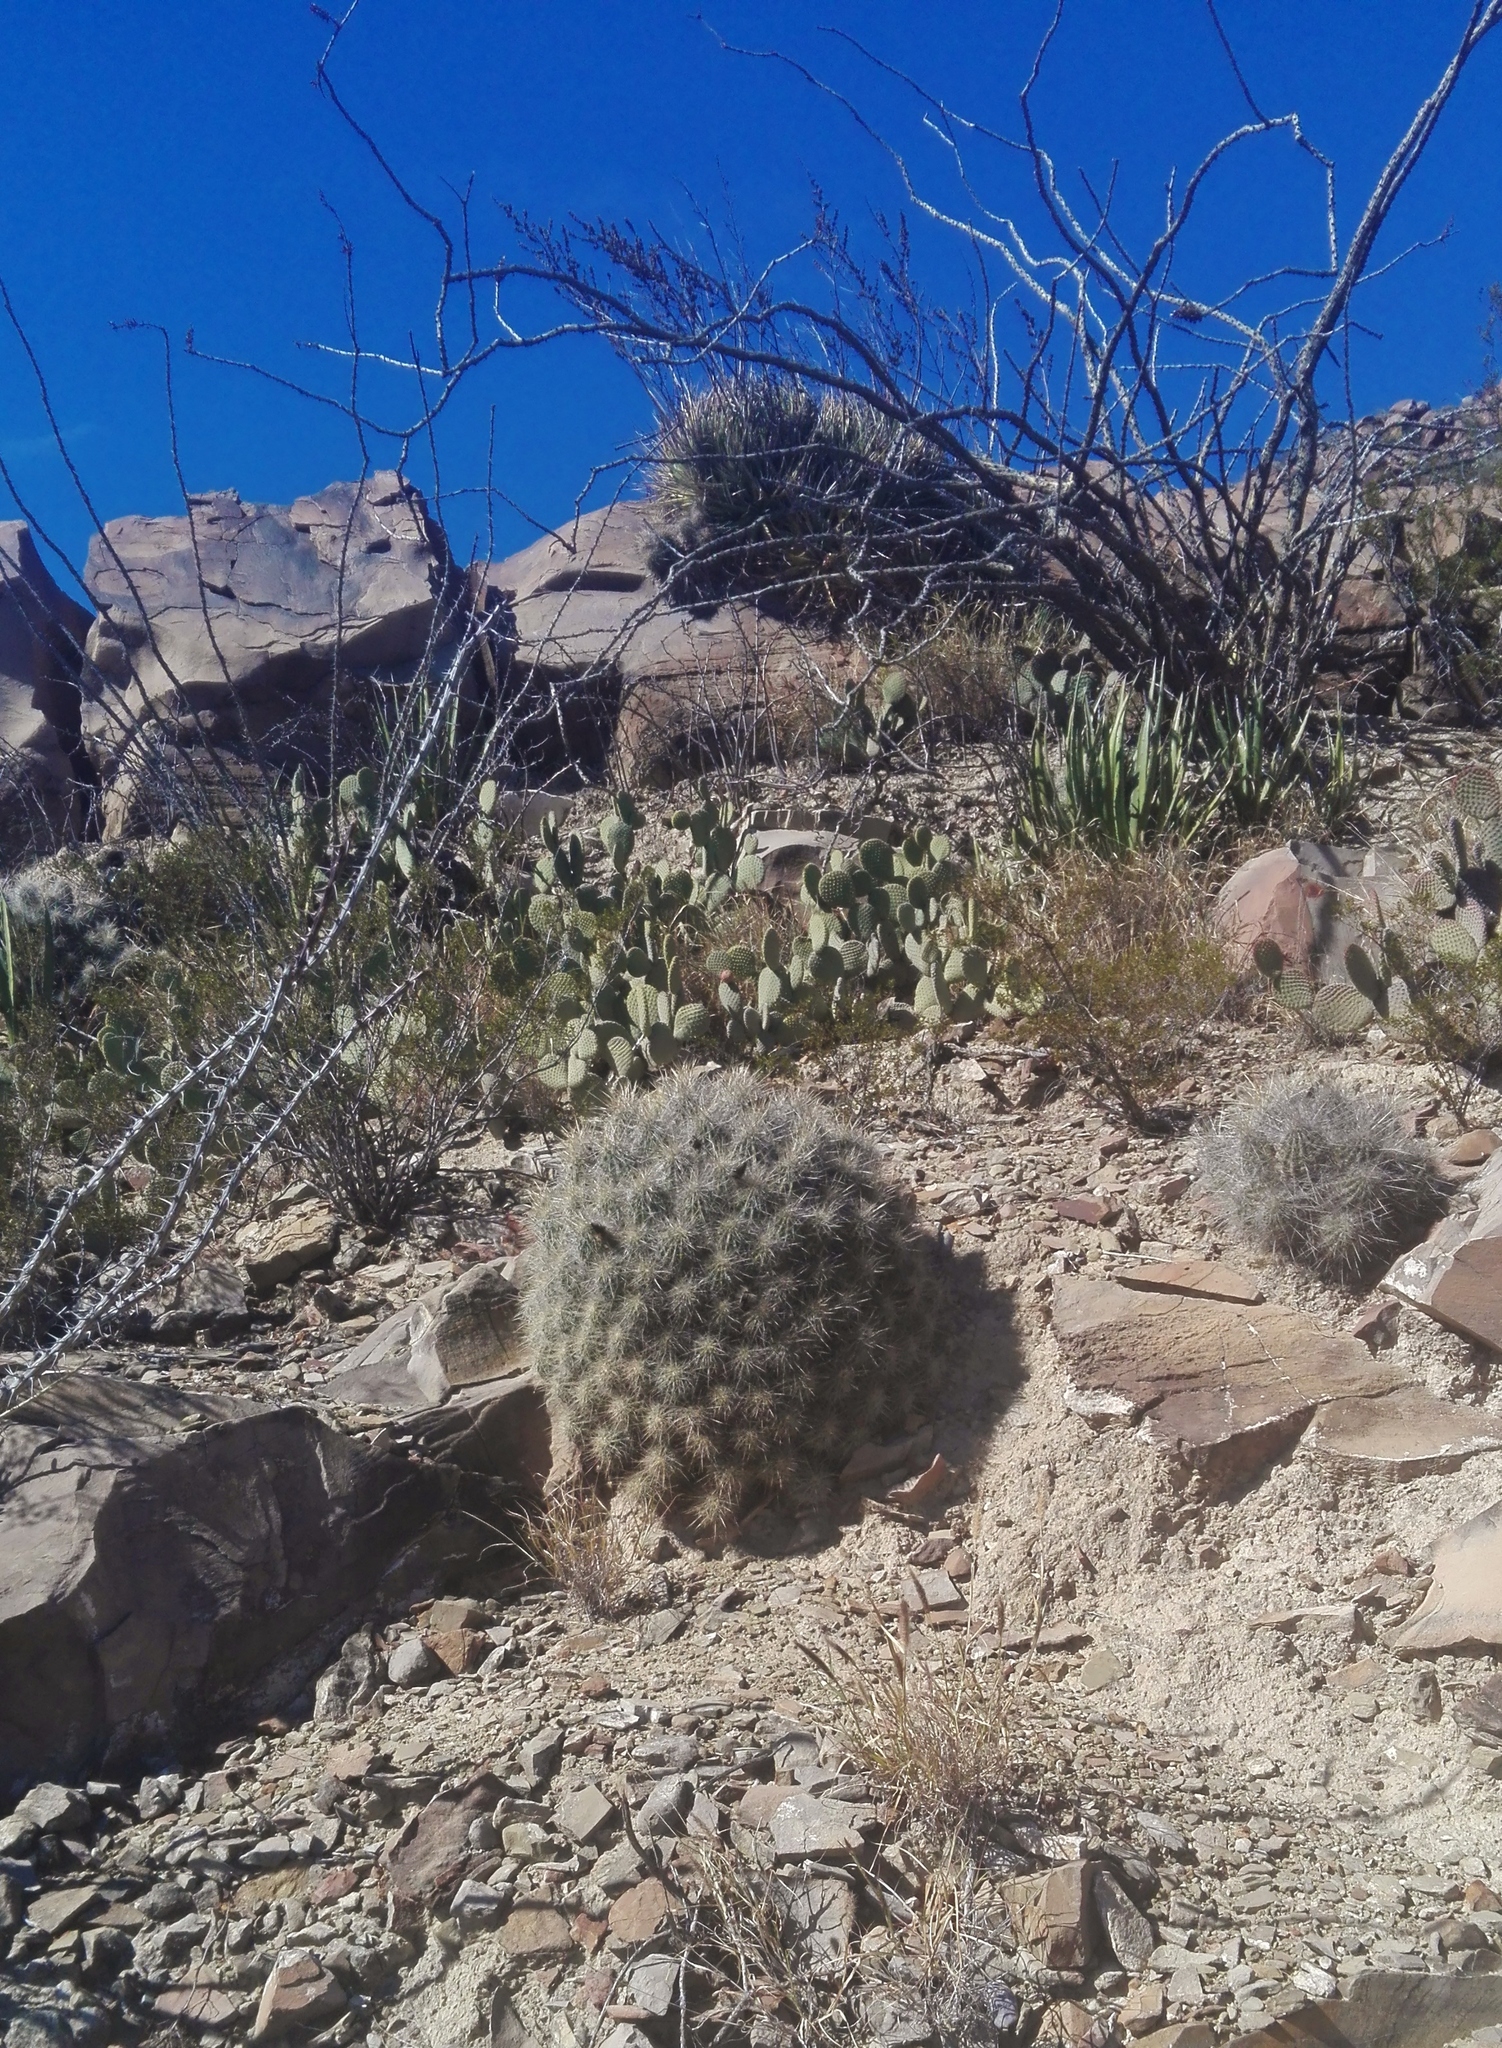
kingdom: Plantae
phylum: Tracheophyta
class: Magnoliopsida
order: Caryophyllales
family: Cactaceae
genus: Echinocereus
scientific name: Echinocereus stramineus
